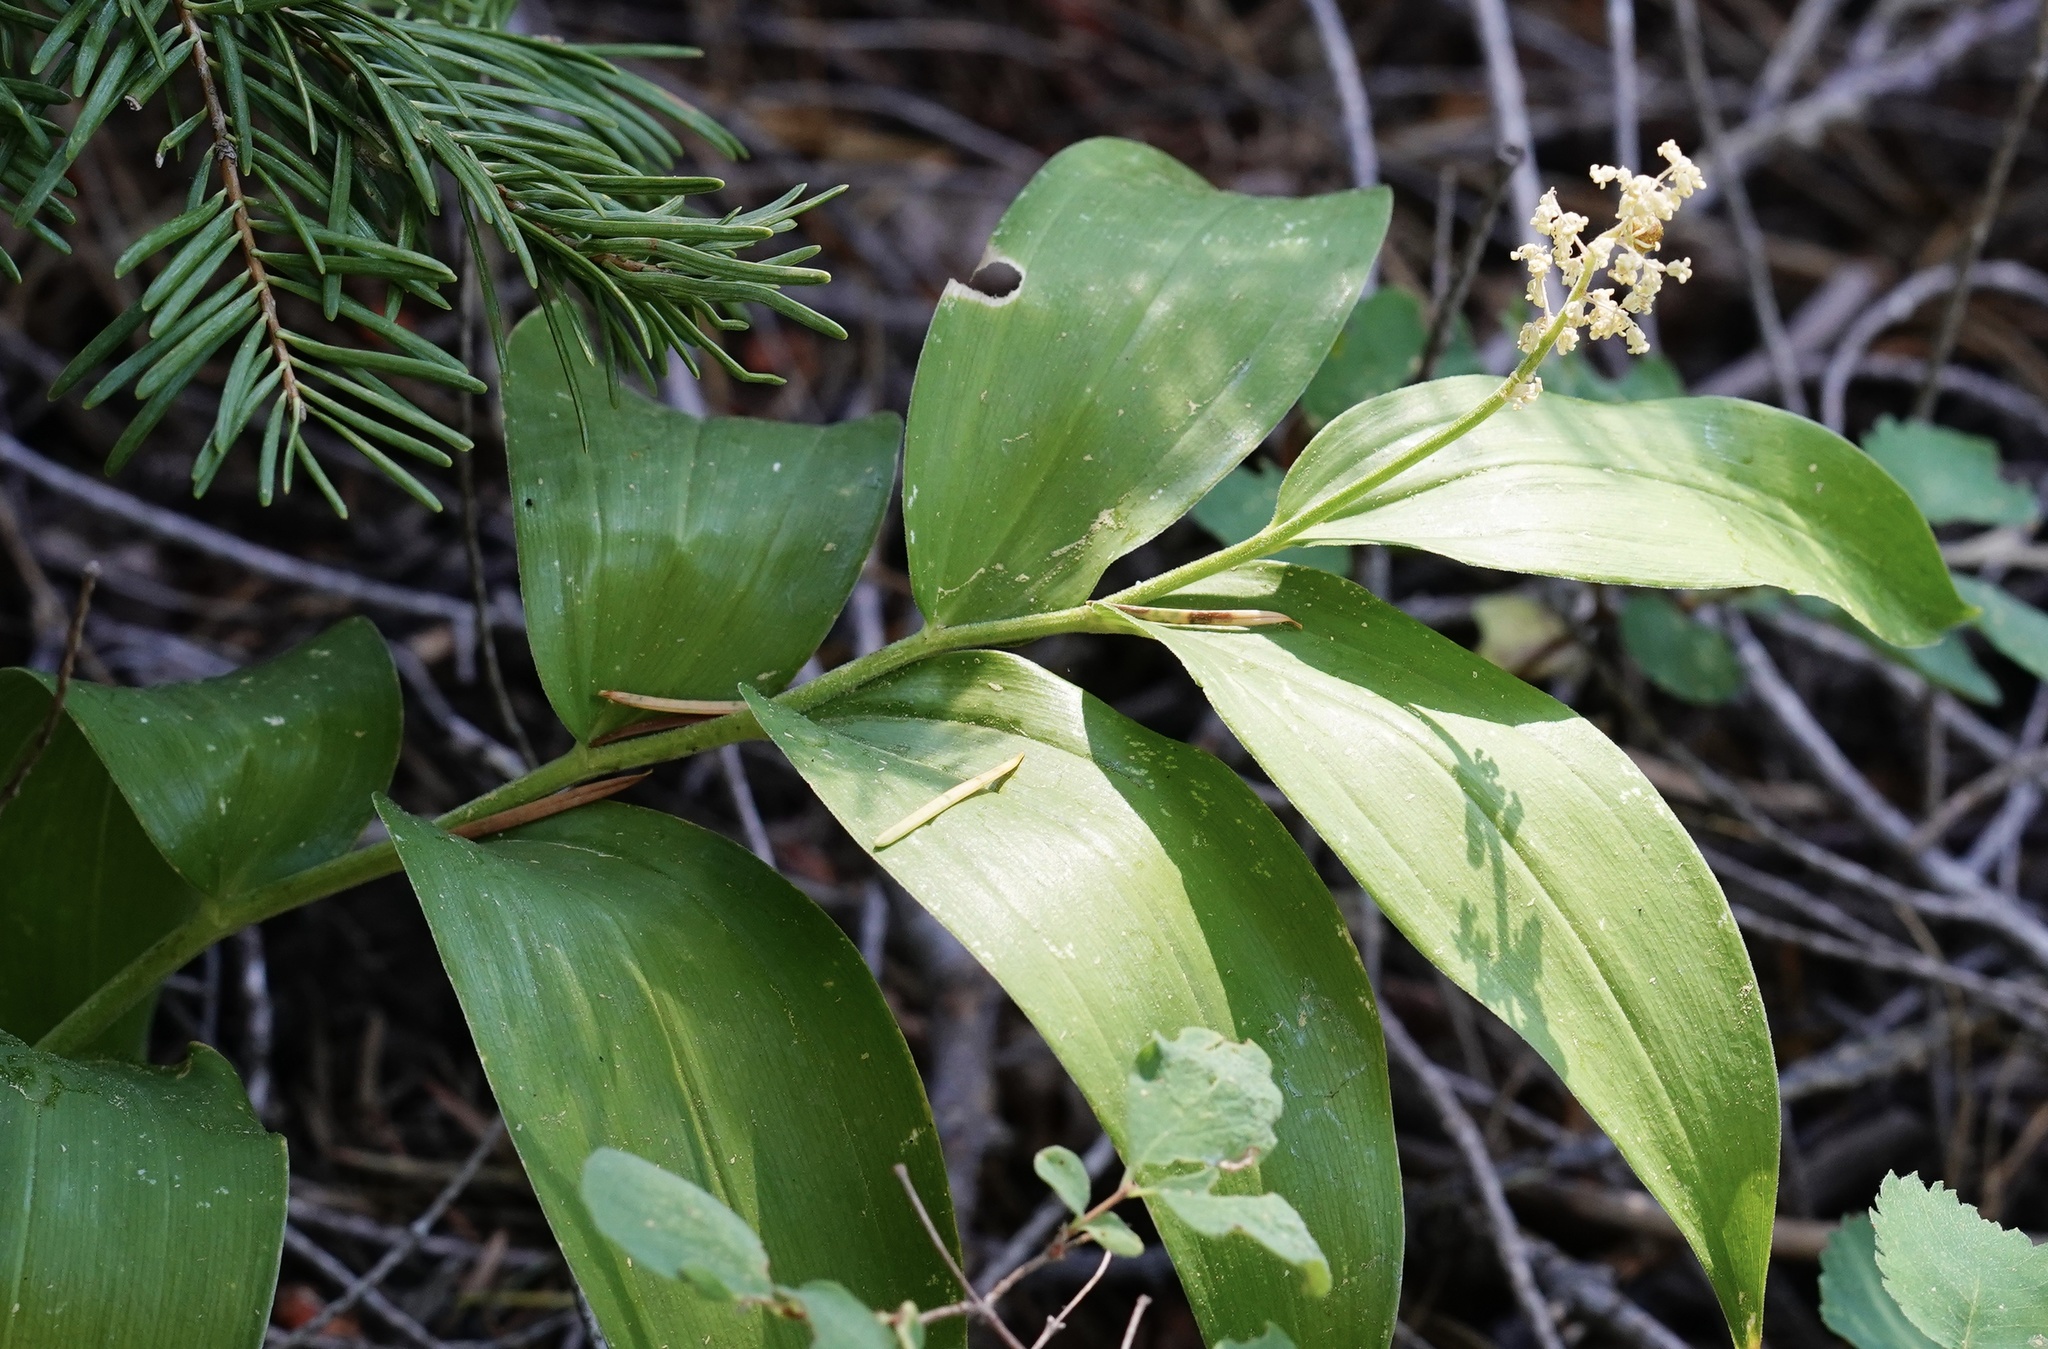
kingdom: Plantae
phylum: Tracheophyta
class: Liliopsida
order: Asparagales
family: Asparagaceae
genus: Maianthemum
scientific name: Maianthemum racemosum
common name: False spikenard
